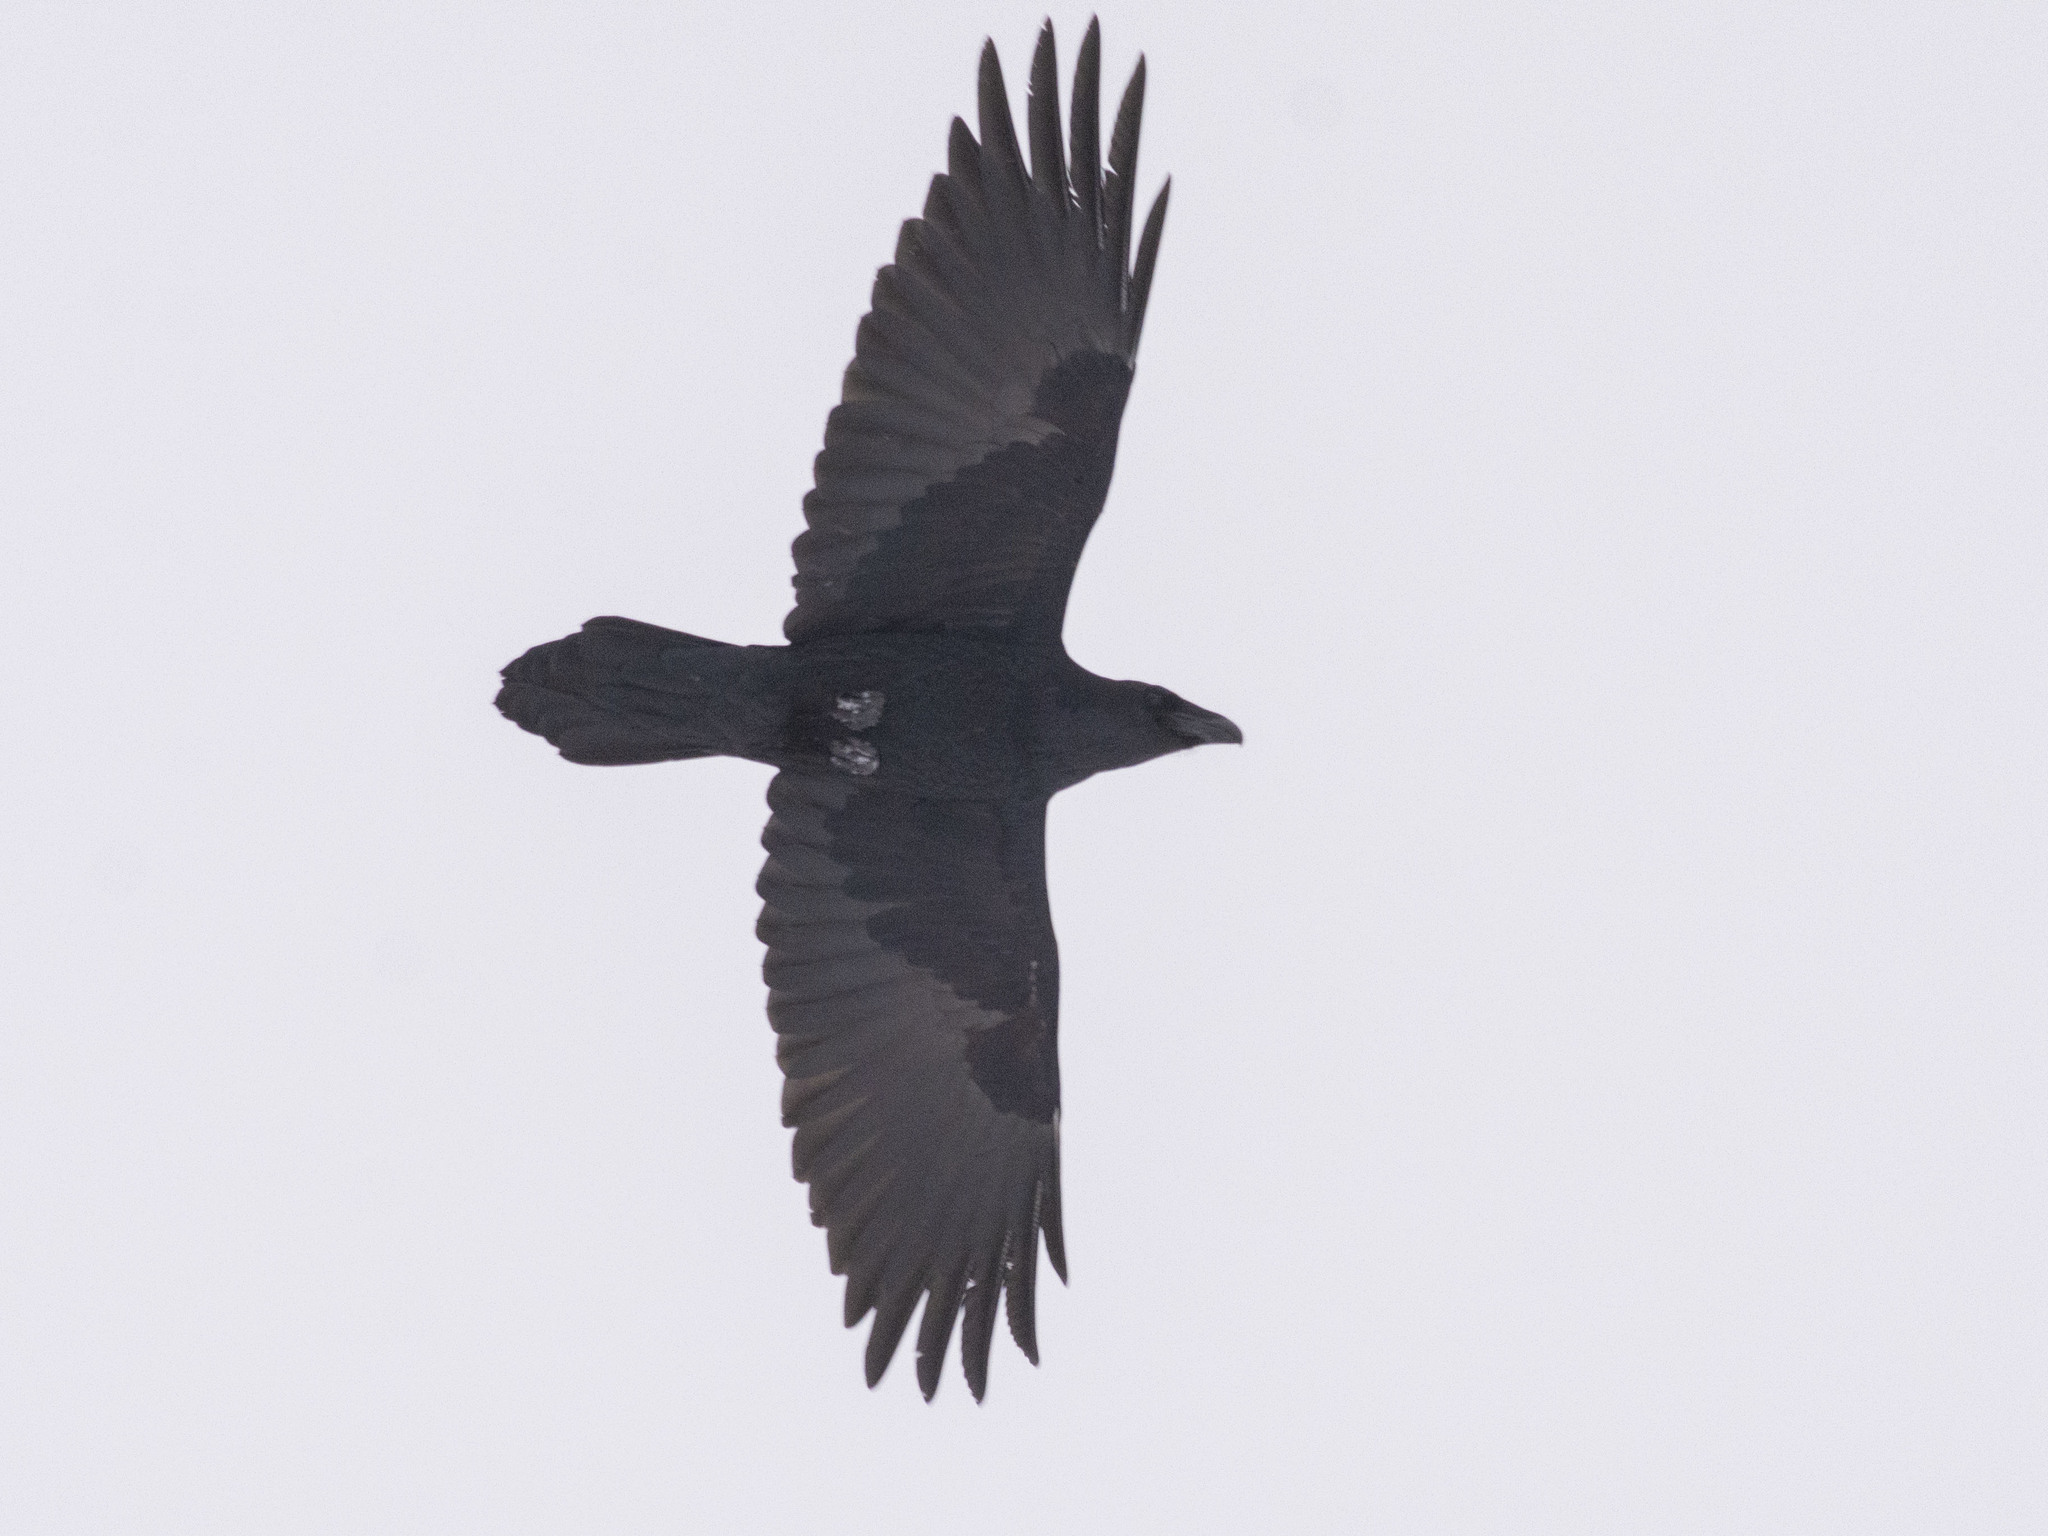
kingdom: Animalia
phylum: Chordata
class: Aves
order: Passeriformes
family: Corvidae
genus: Corvus
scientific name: Corvus corax
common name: Common raven
